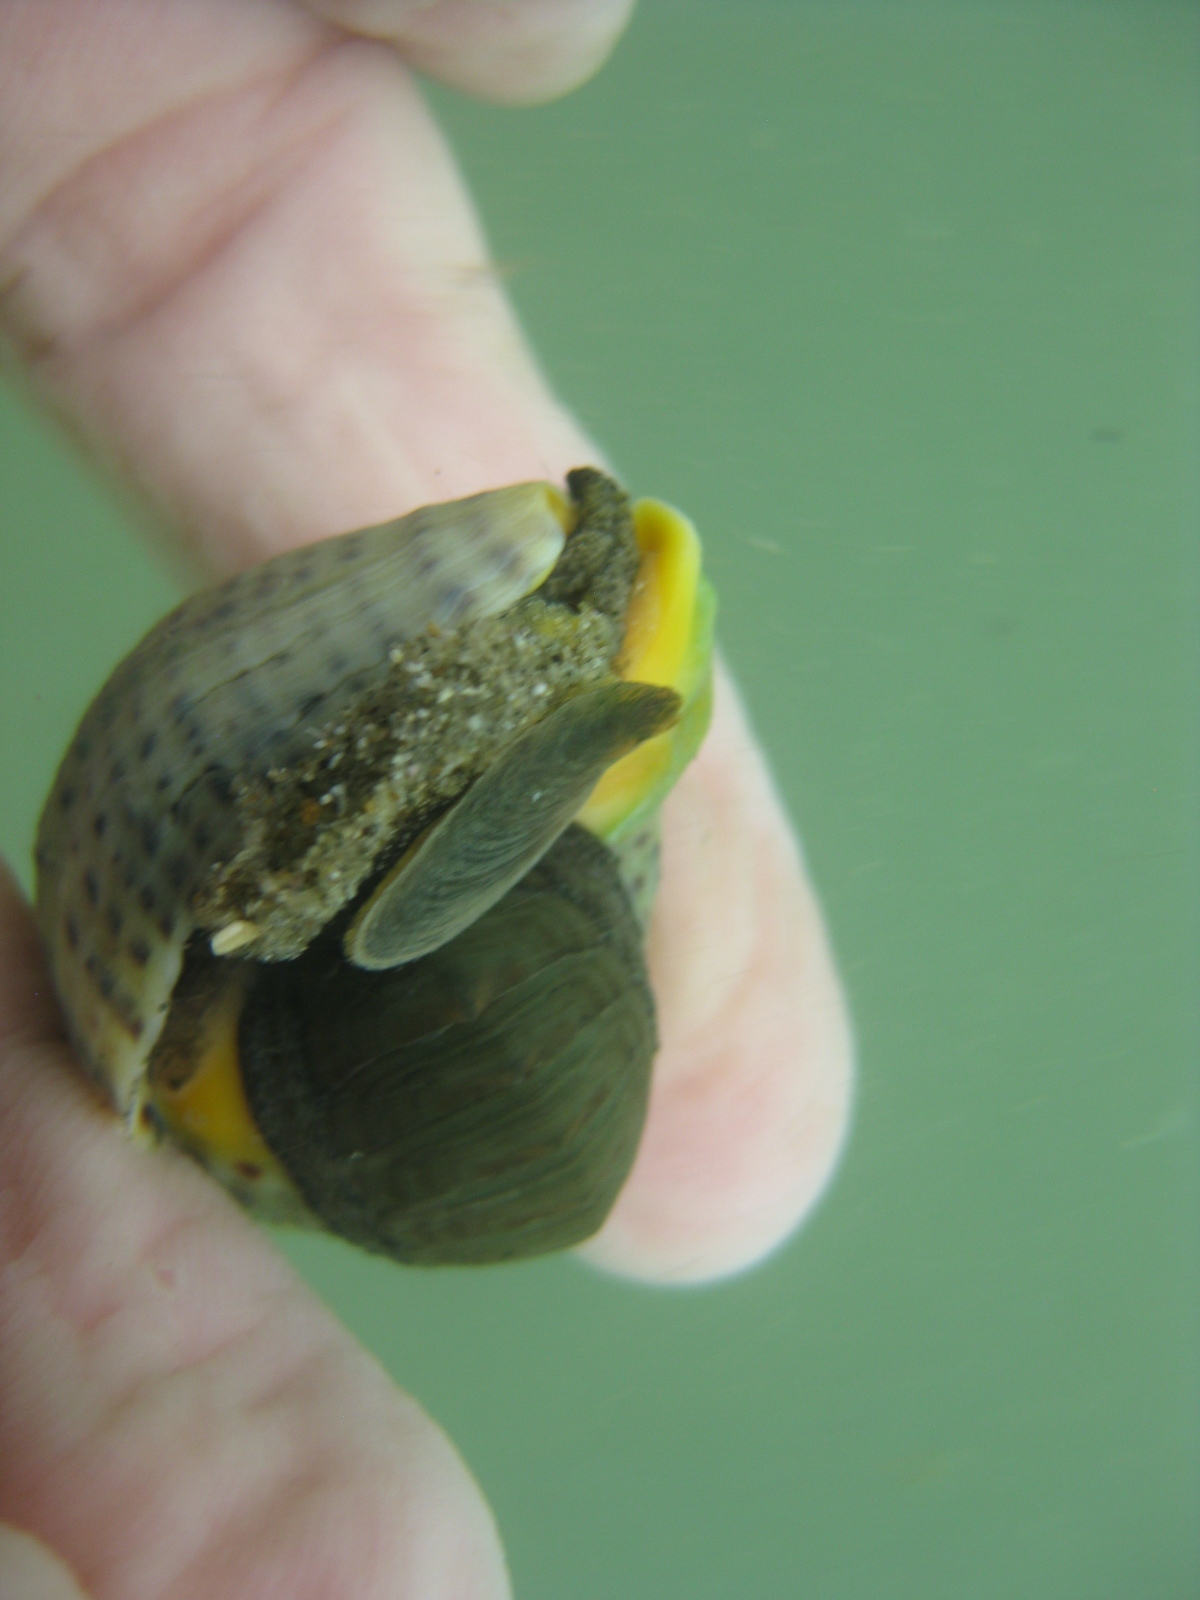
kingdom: Animalia
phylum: Mollusca
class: Gastropoda
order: Neogastropoda
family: Cominellidae
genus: Cominella
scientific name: Cominella adspersa
